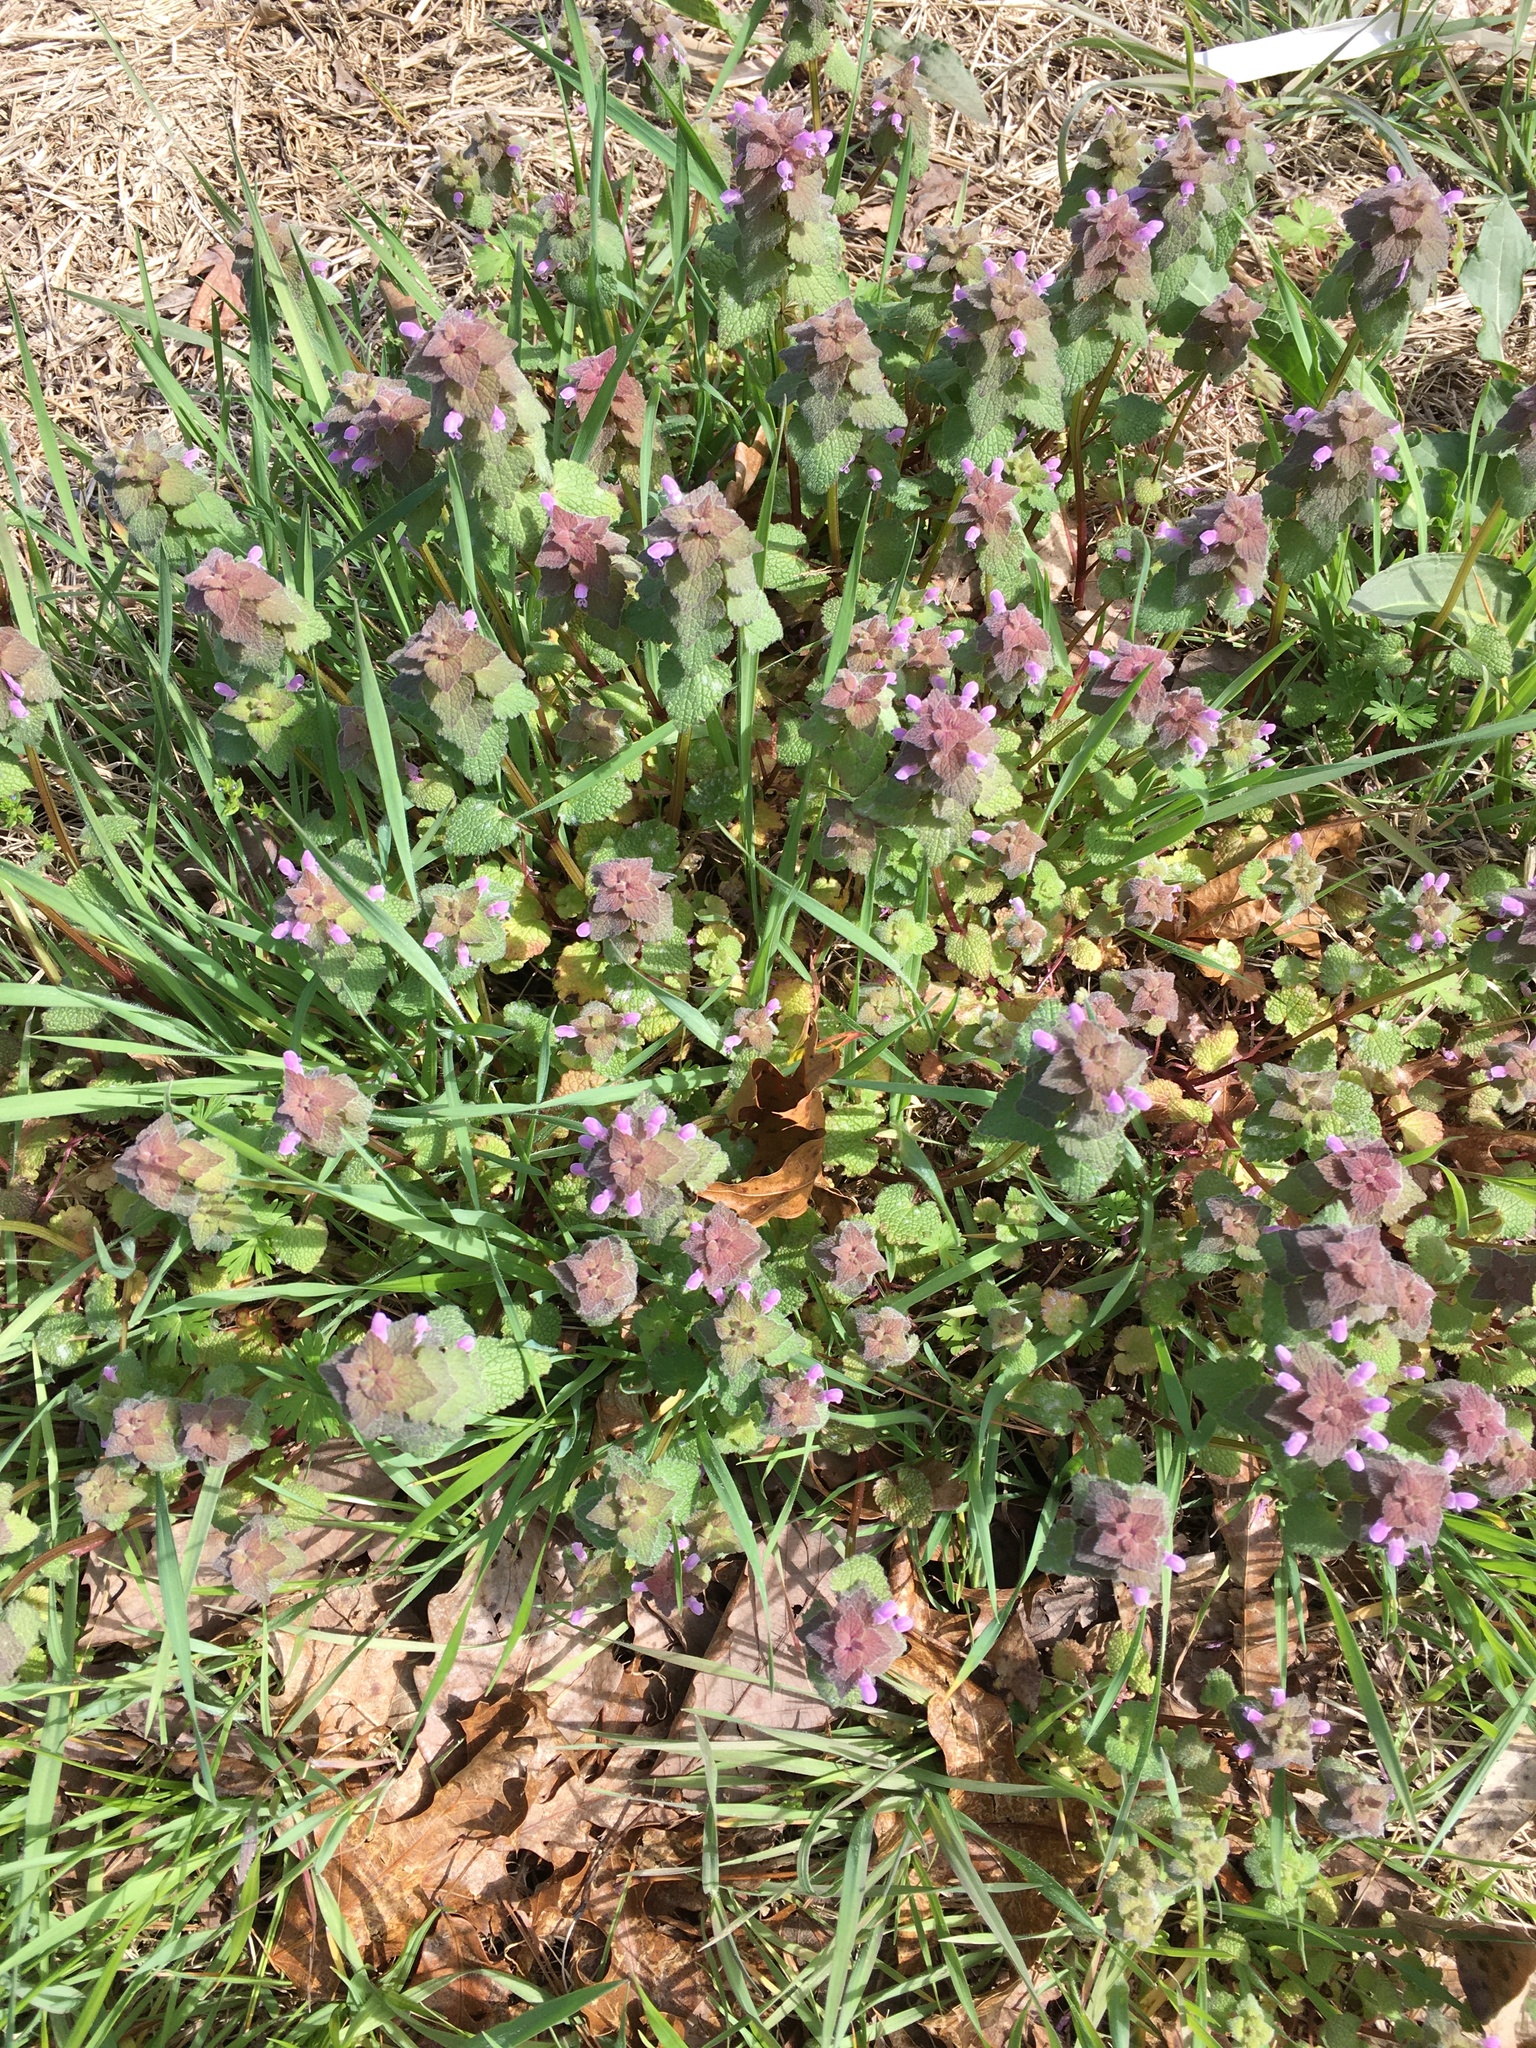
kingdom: Plantae
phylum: Tracheophyta
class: Magnoliopsida
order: Lamiales
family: Lamiaceae
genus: Lamium
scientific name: Lamium purpureum
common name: Red dead-nettle
